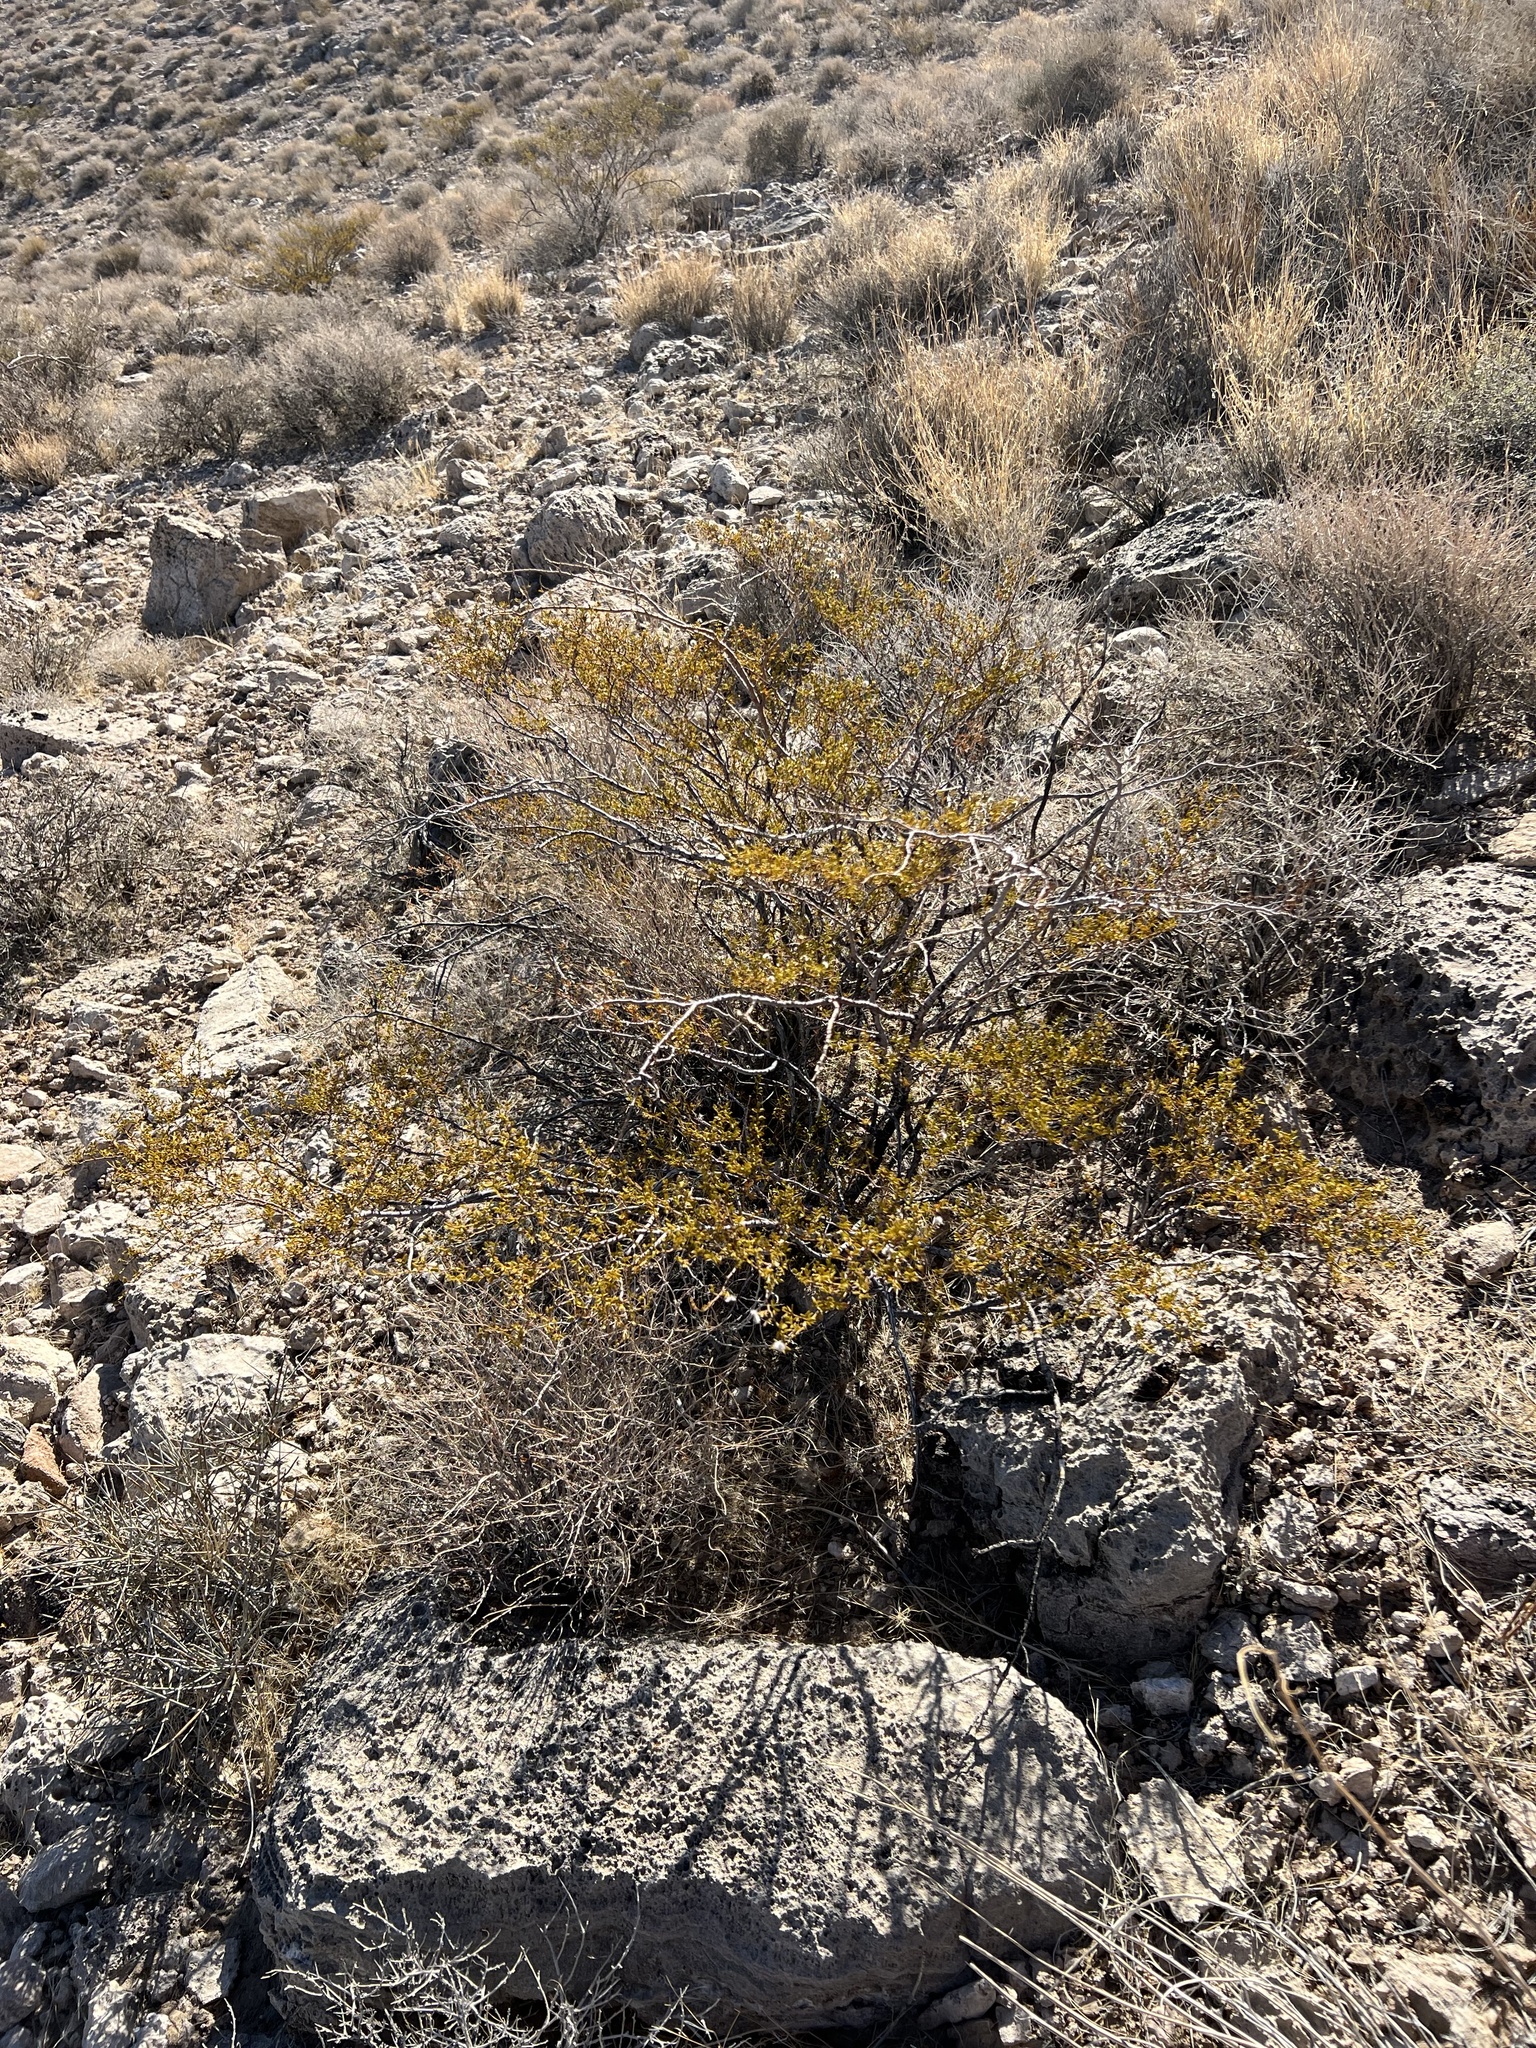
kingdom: Plantae
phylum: Tracheophyta
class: Magnoliopsida
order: Zygophyllales
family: Zygophyllaceae
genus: Larrea
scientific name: Larrea tridentata
